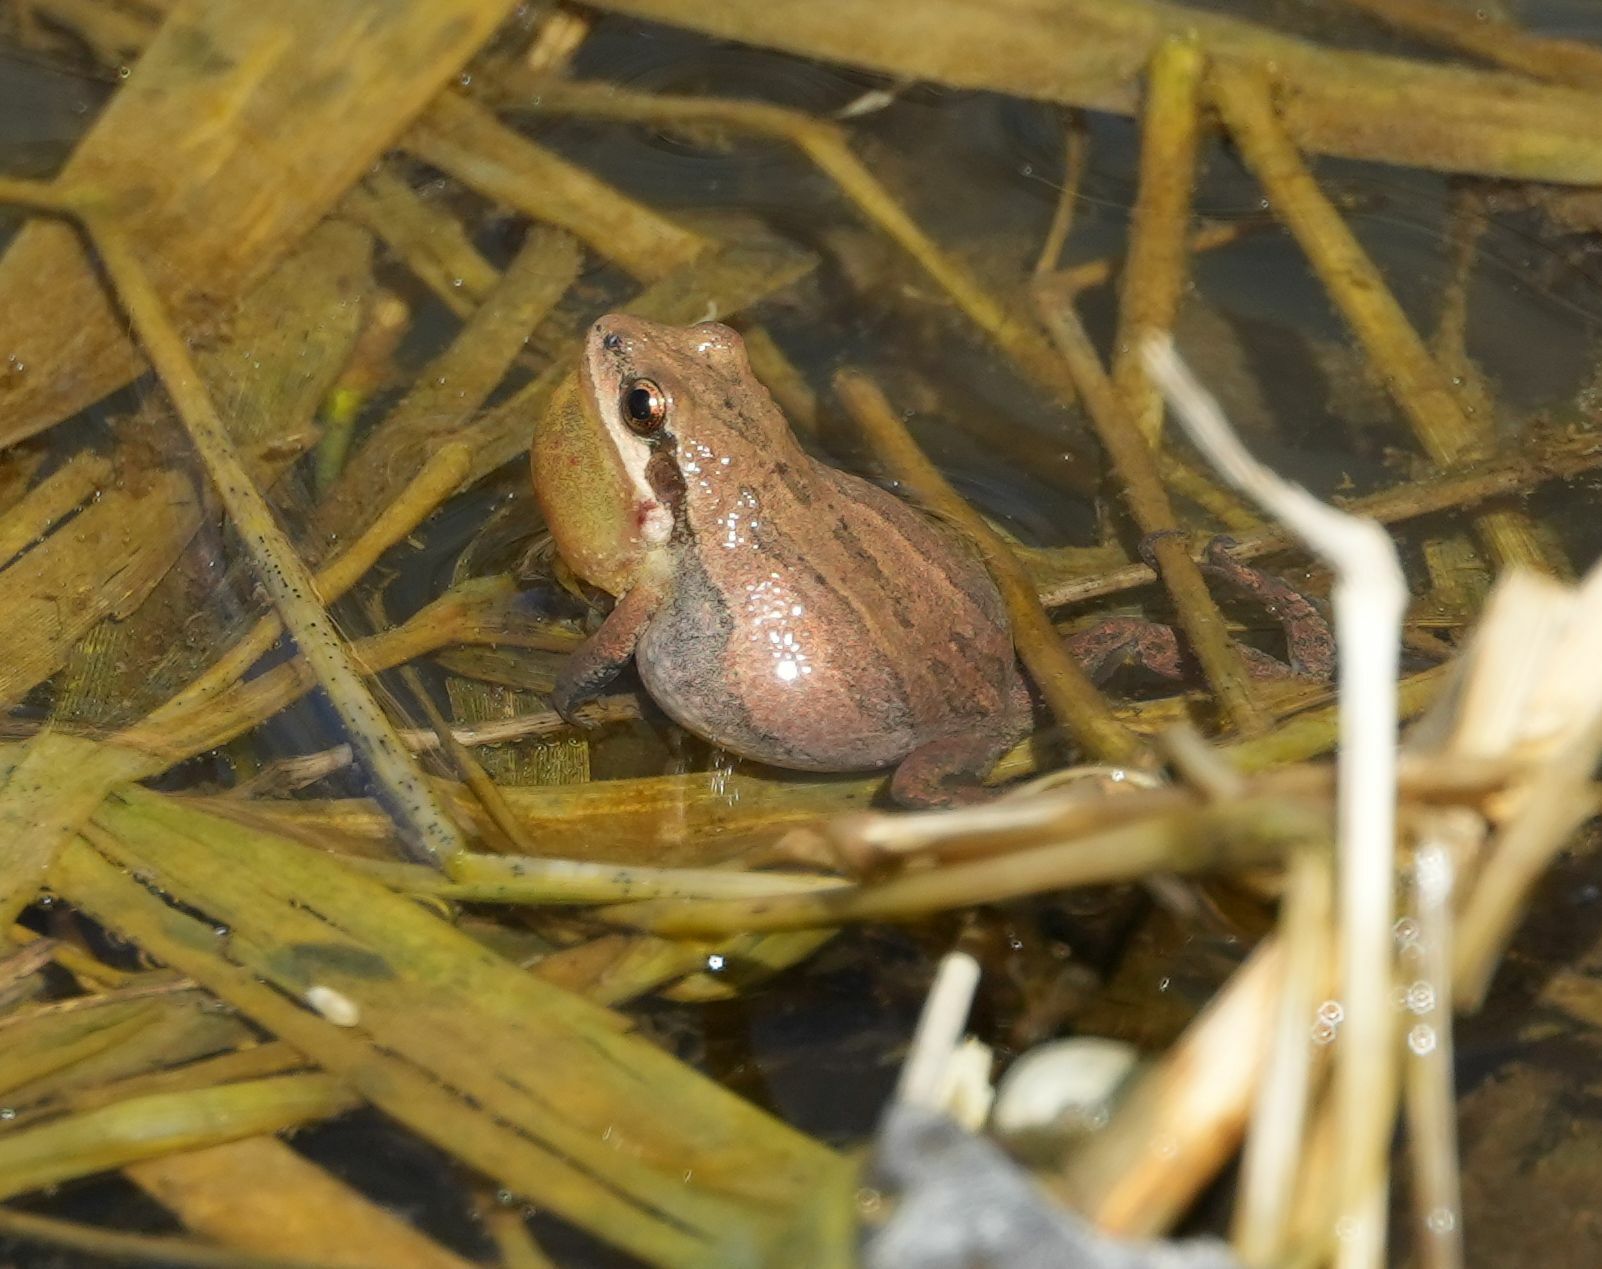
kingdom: Animalia
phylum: Chordata
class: Amphibia
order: Anura
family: Hylidae
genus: Pseudacris
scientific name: Pseudacris maculata
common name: Boreal chorus frog
